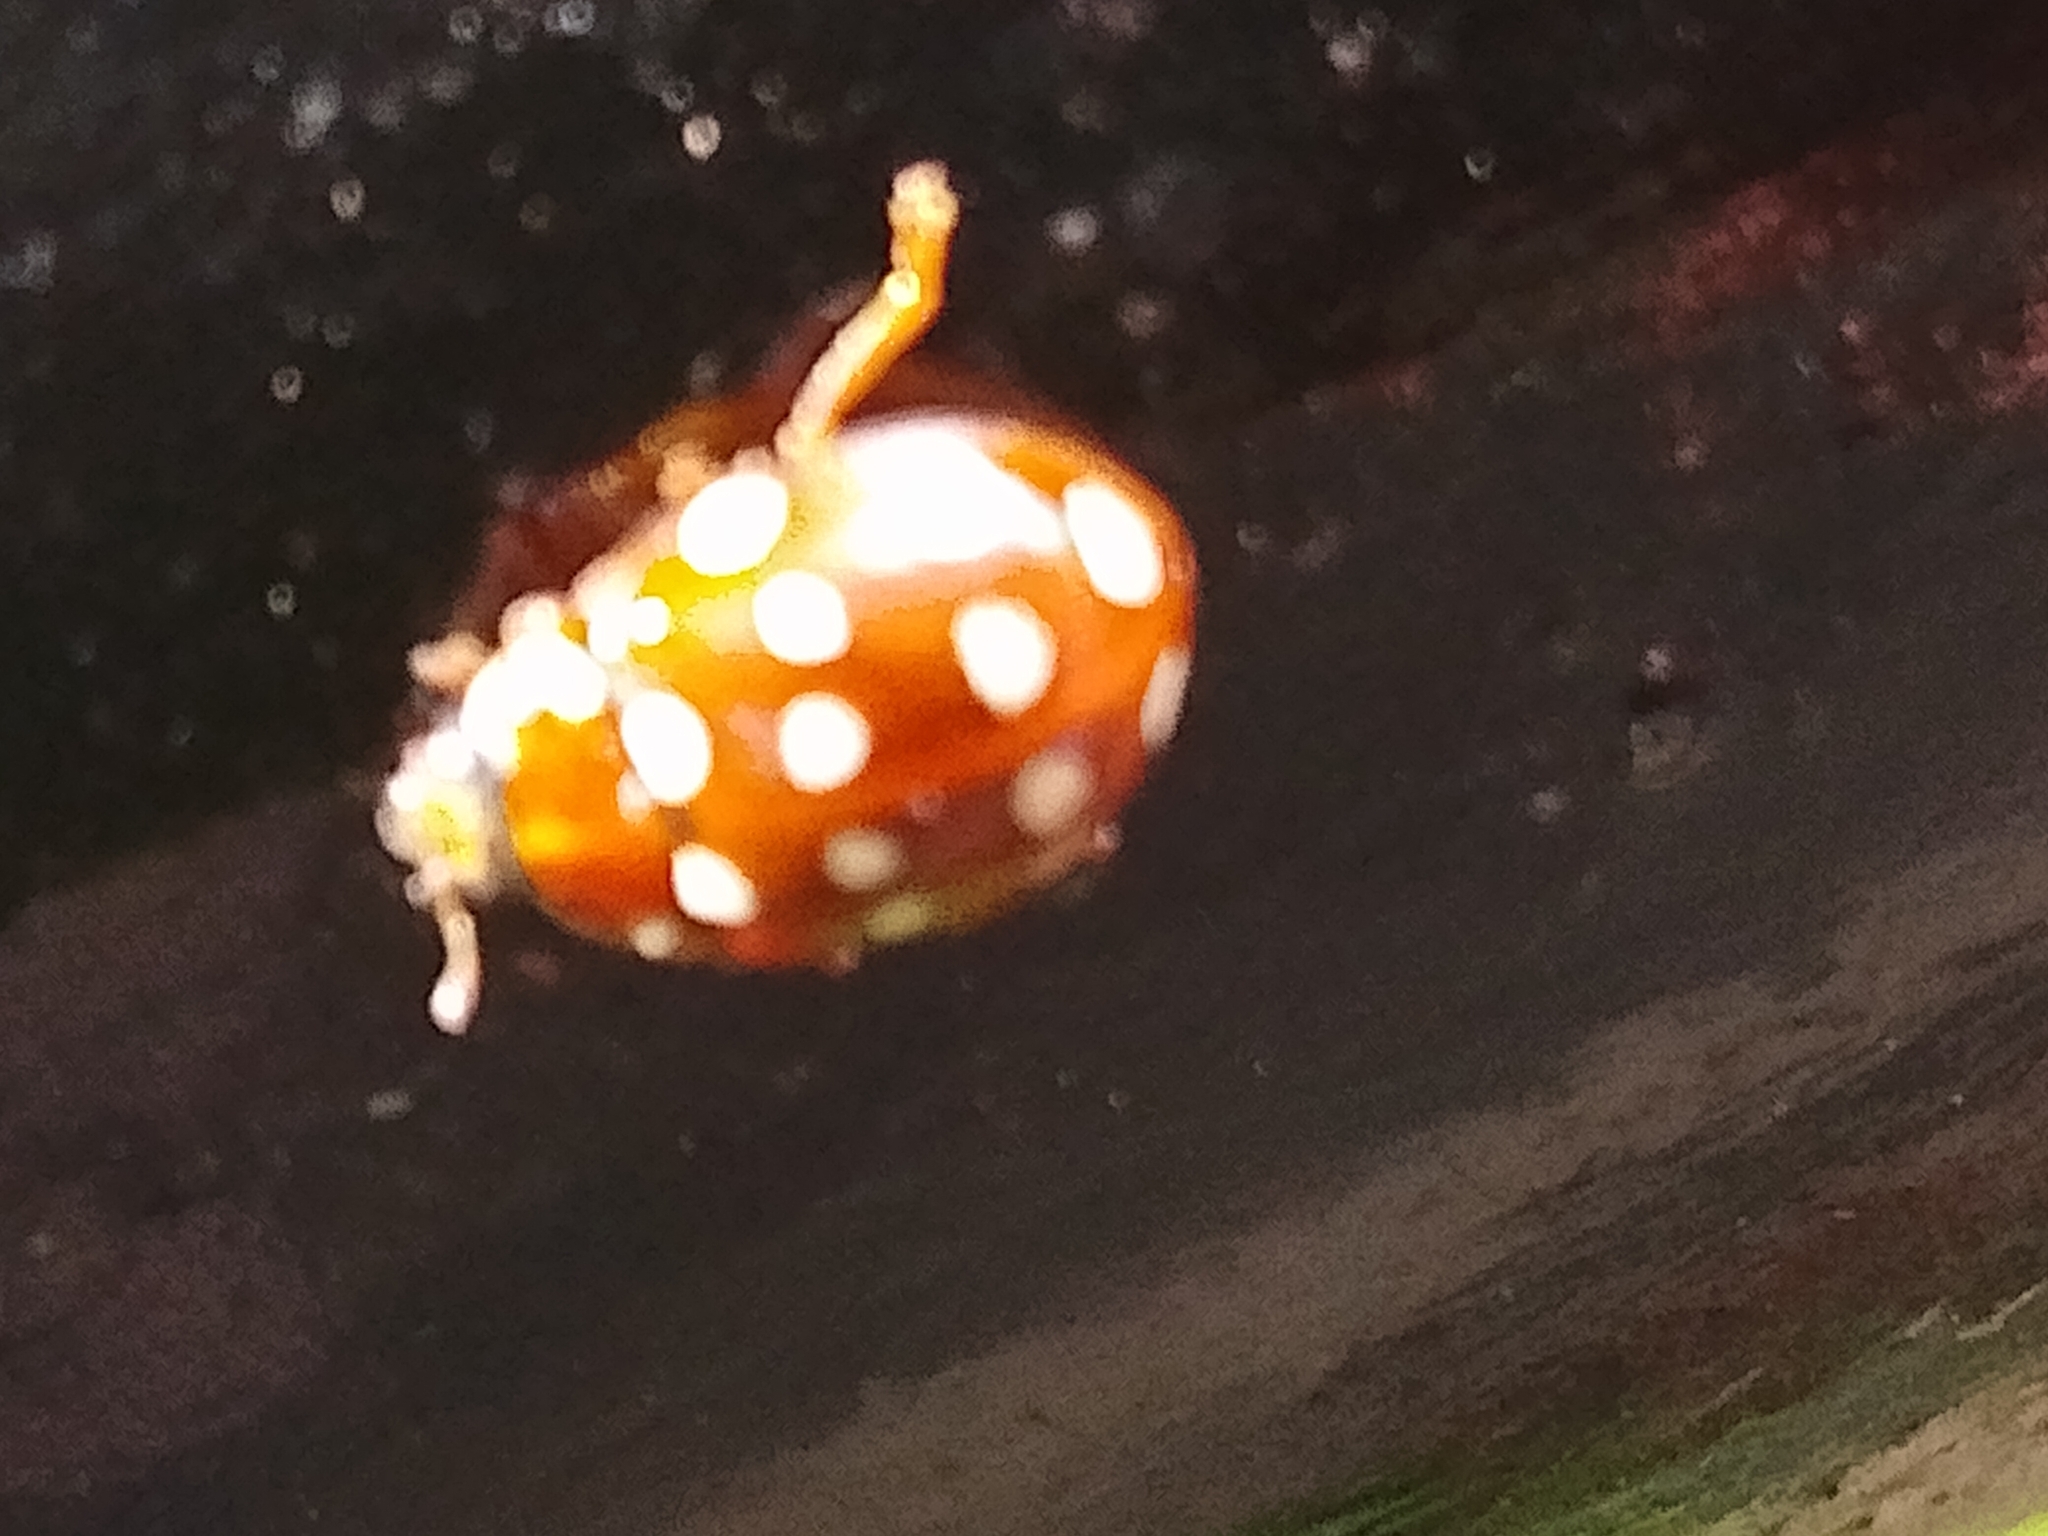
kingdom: Animalia
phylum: Arthropoda
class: Insecta
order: Coleoptera
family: Coccinellidae
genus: Calvia
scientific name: Calvia quatuordecimguttata
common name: Cream-spot ladybird
